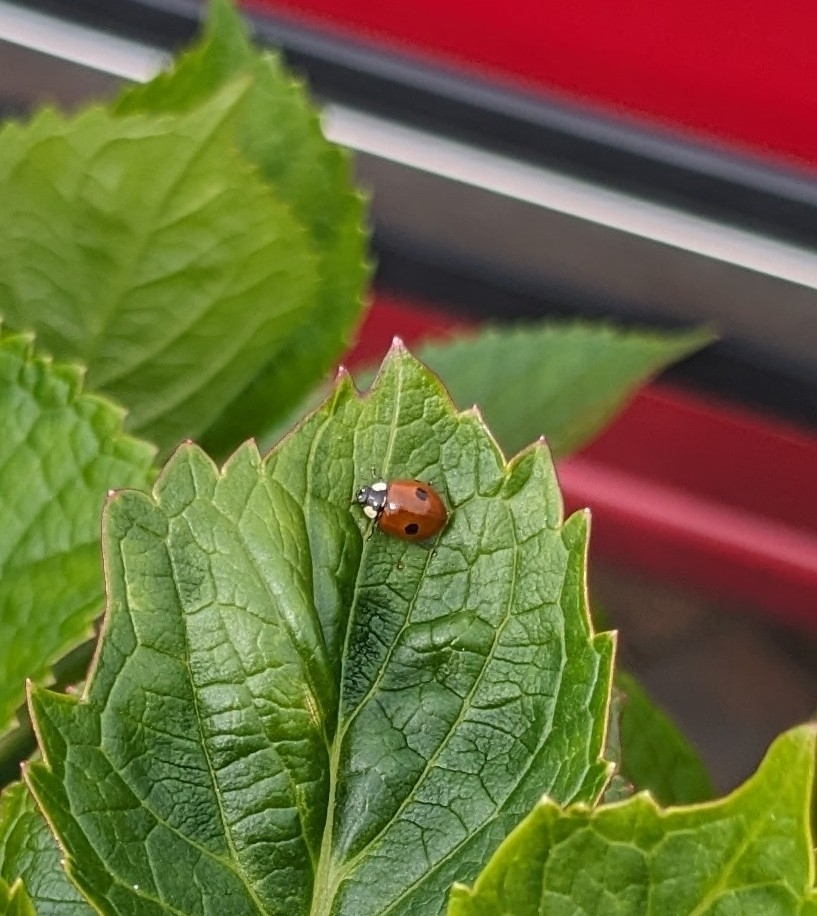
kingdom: Animalia
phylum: Arthropoda
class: Insecta
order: Coleoptera
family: Coccinellidae
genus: Adalia
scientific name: Adalia bipunctata
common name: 2-spot ladybird
